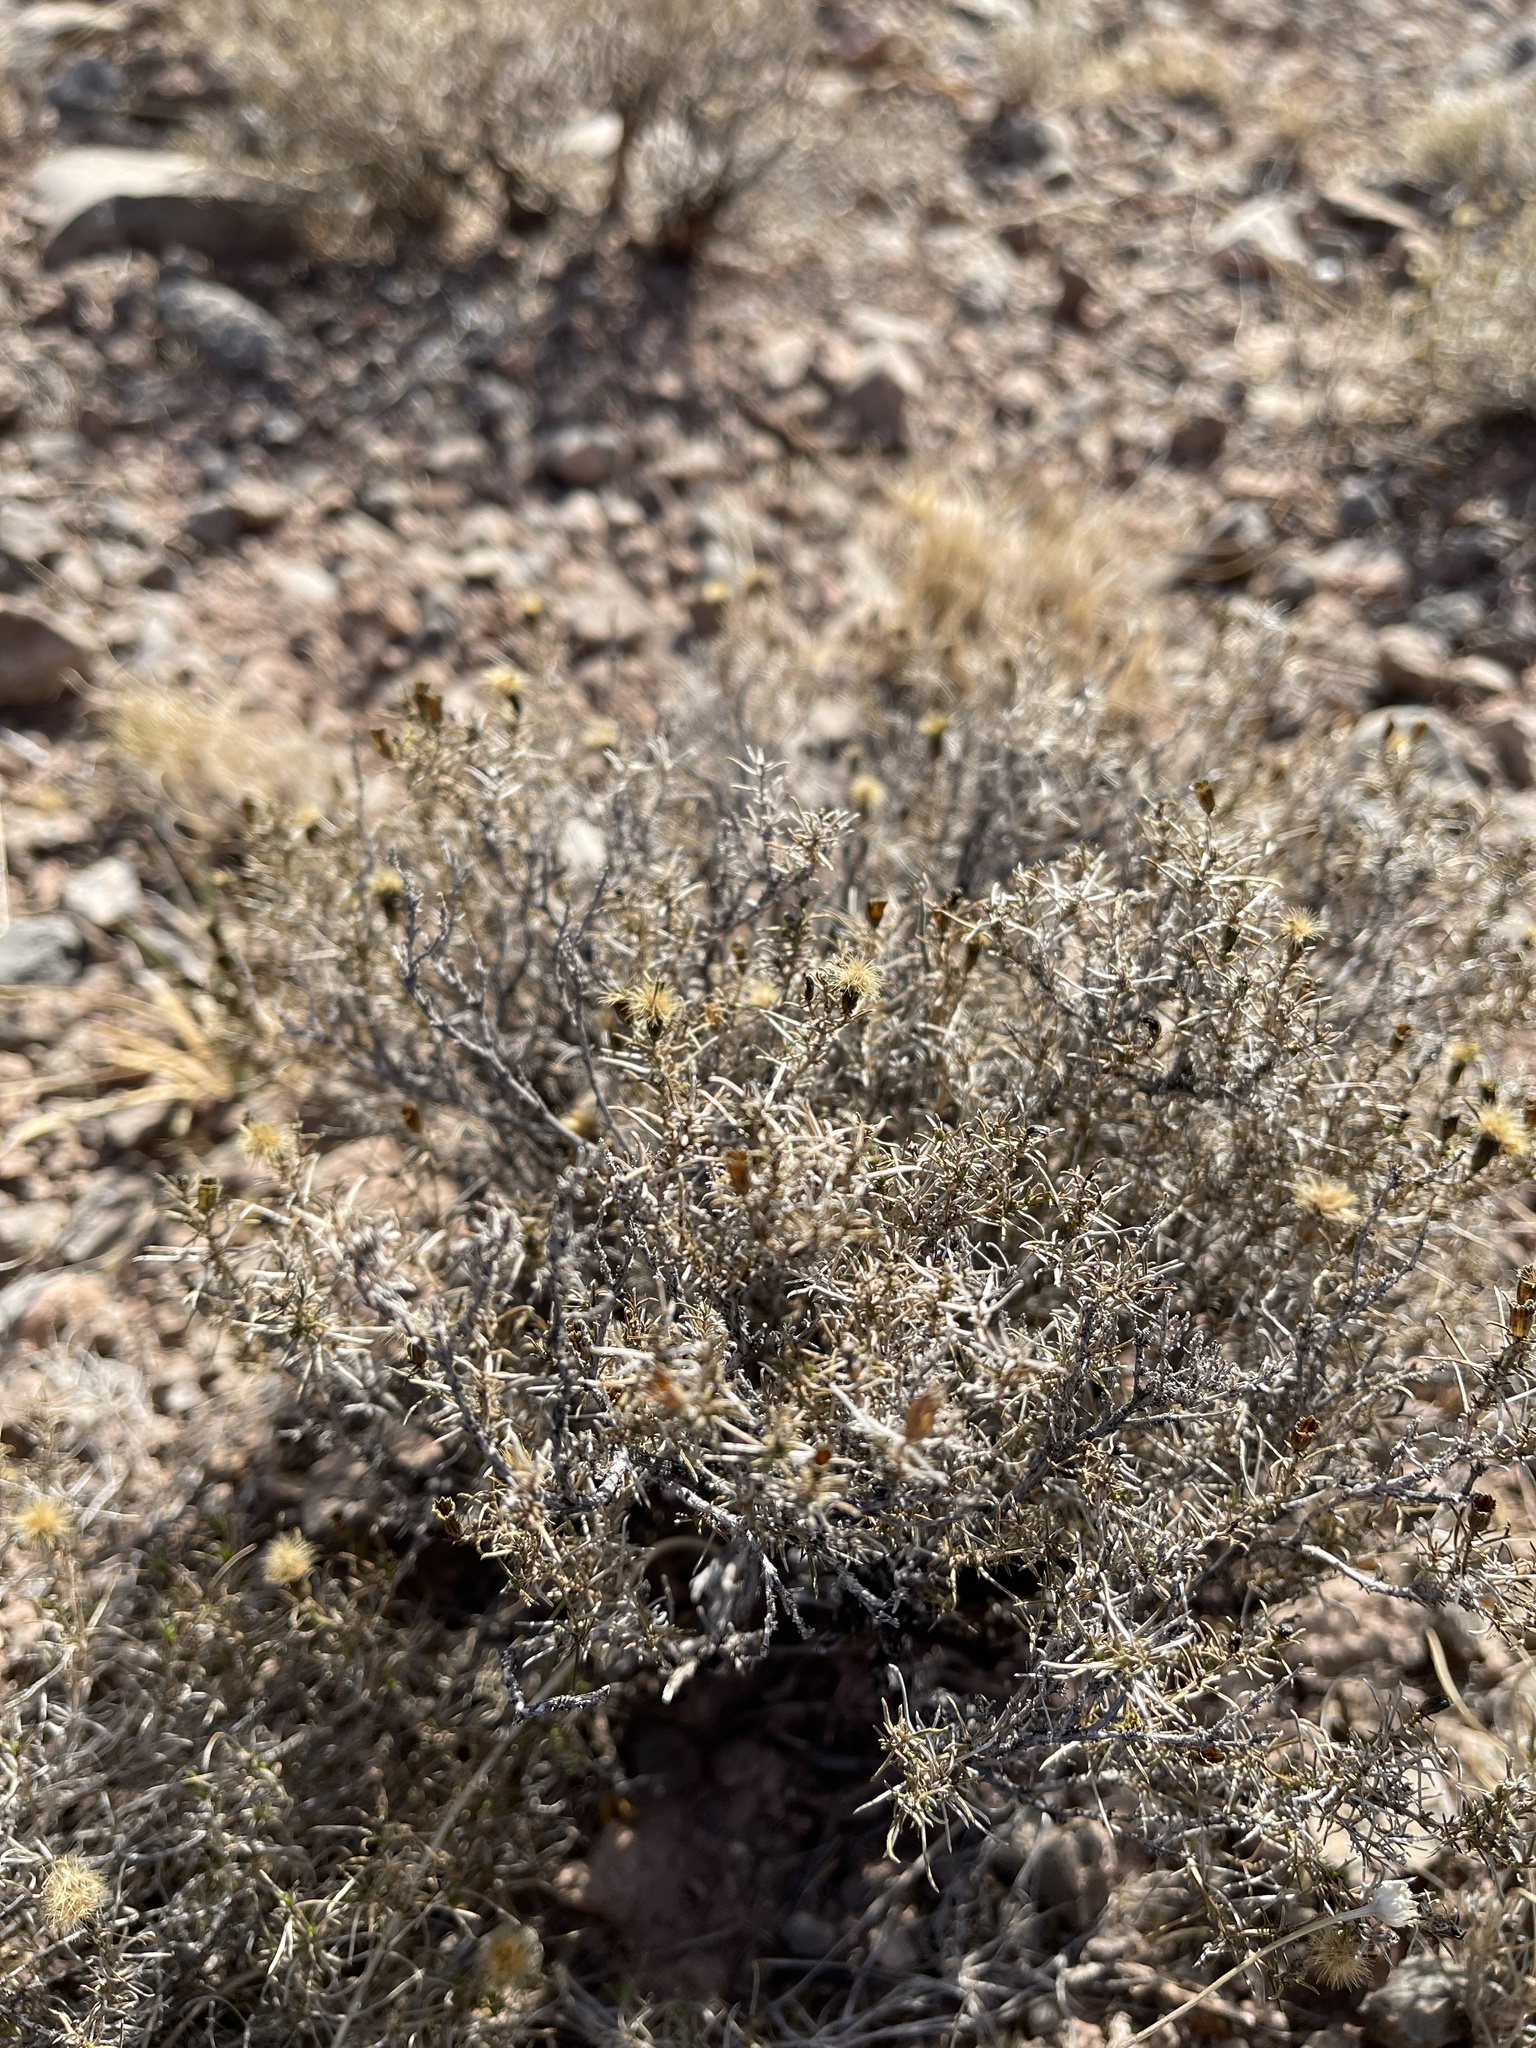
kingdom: Plantae
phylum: Tracheophyta
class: Magnoliopsida
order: Asterales
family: Asteraceae
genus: Thymophylla
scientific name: Thymophylla acerosa
